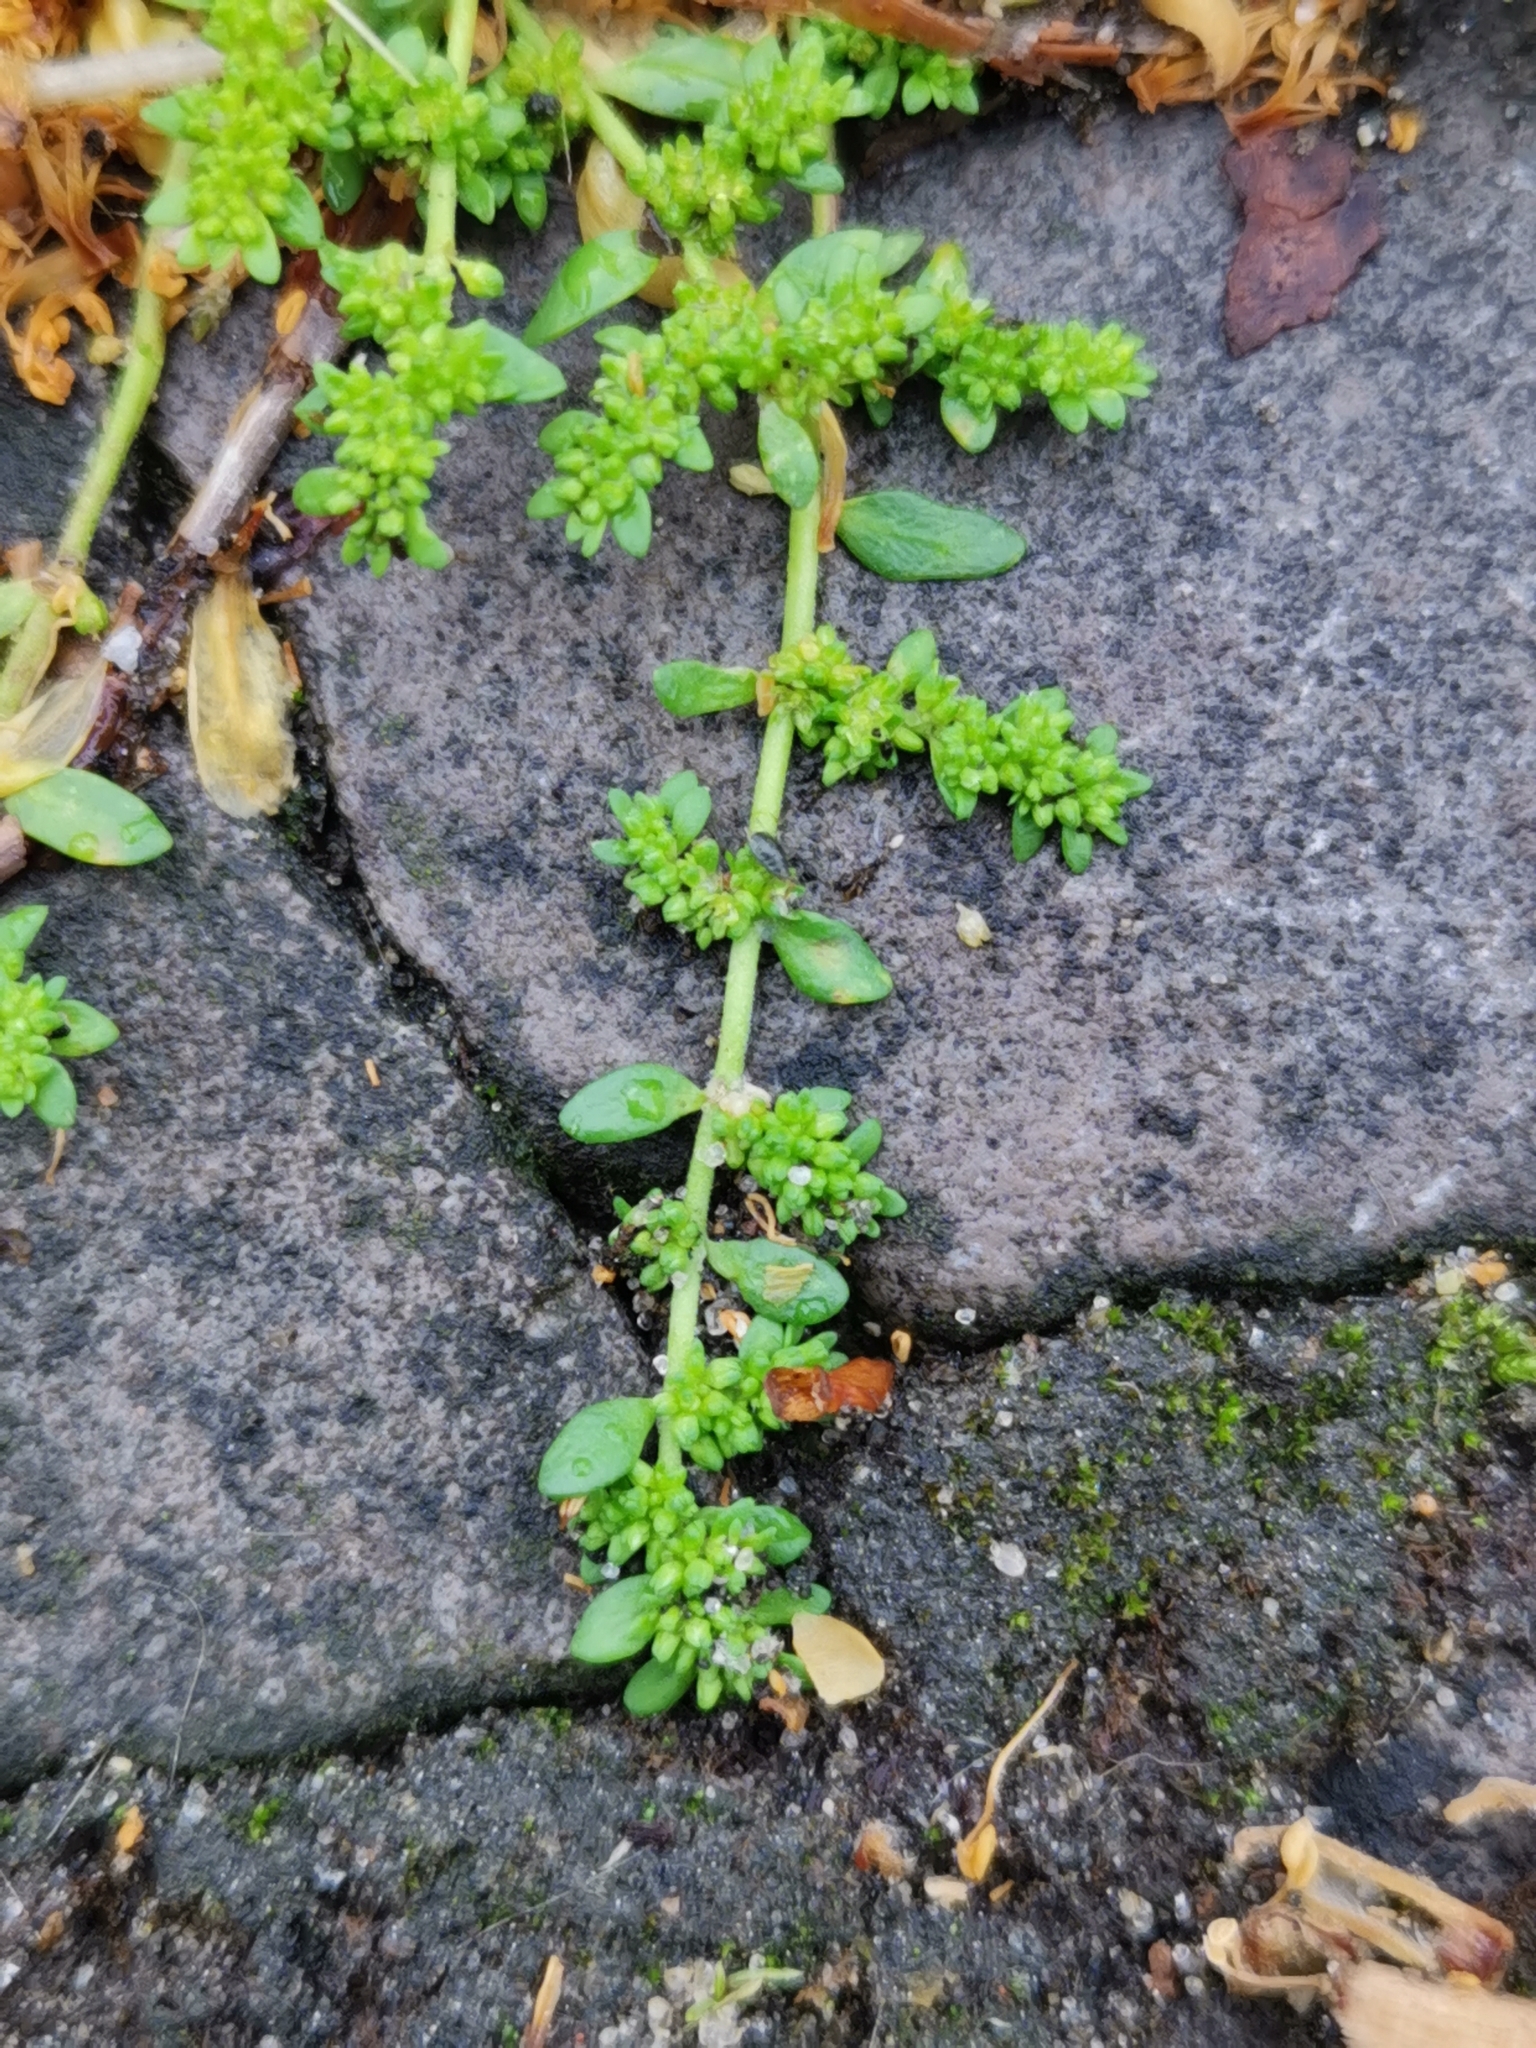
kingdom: Plantae
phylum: Tracheophyta
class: Magnoliopsida
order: Caryophyllales
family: Caryophyllaceae
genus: Herniaria
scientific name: Herniaria glabra
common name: Smooth rupturewort
